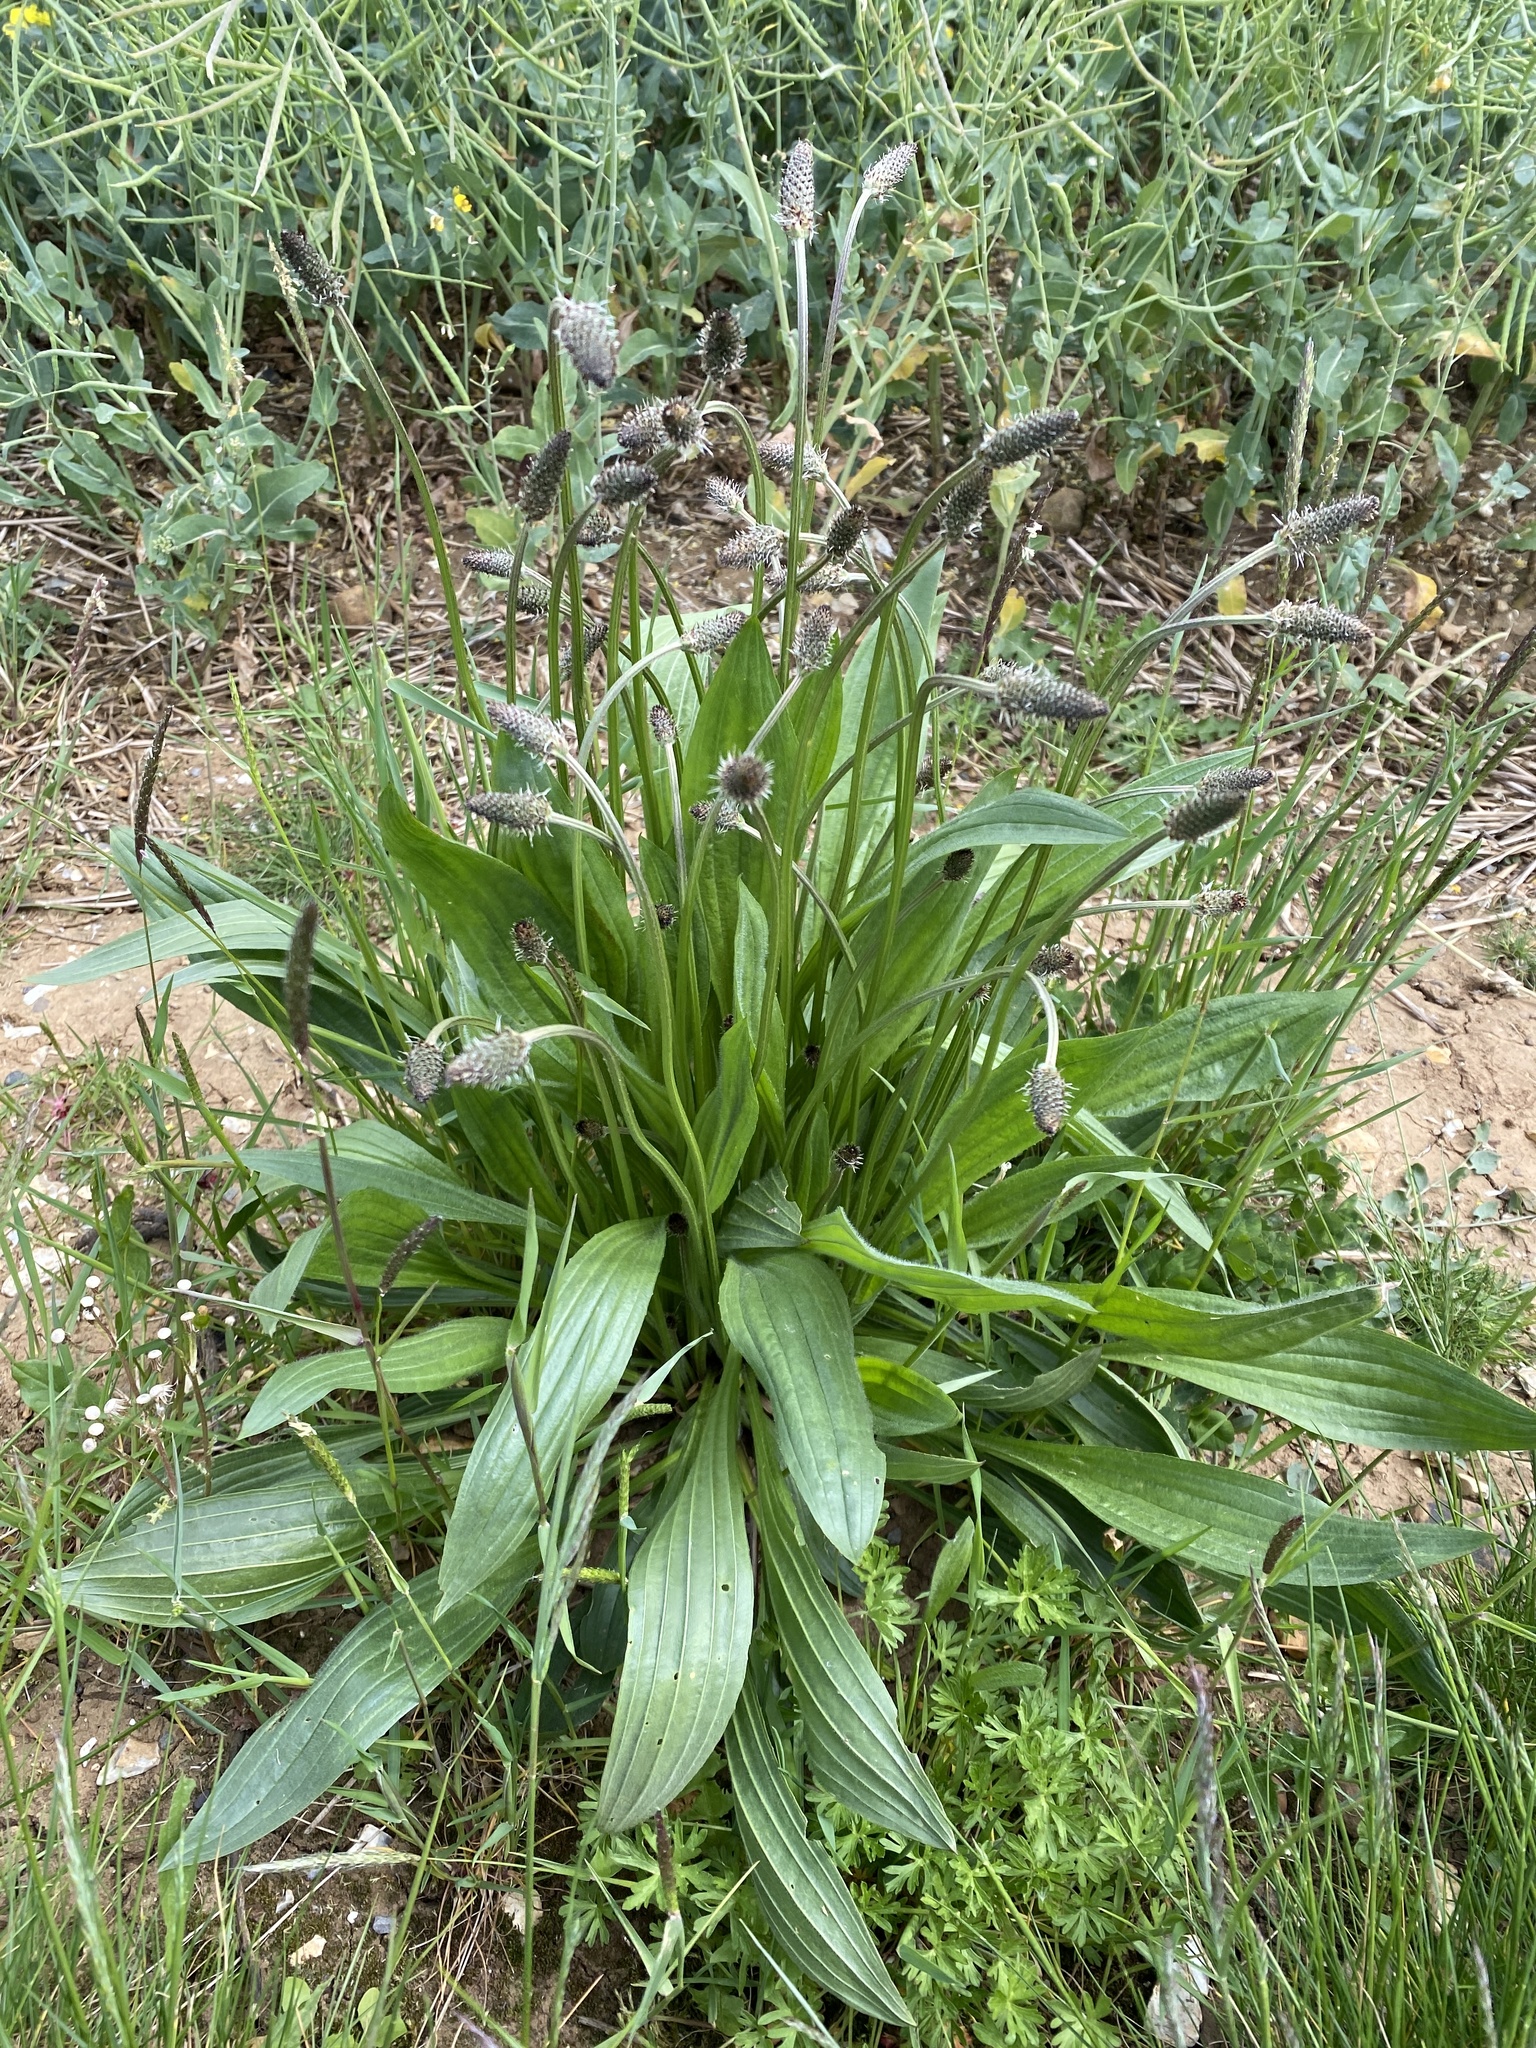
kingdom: Plantae
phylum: Tracheophyta
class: Magnoliopsida
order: Lamiales
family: Plantaginaceae
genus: Plantago
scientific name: Plantago lanceolata
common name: Ribwort plantain
